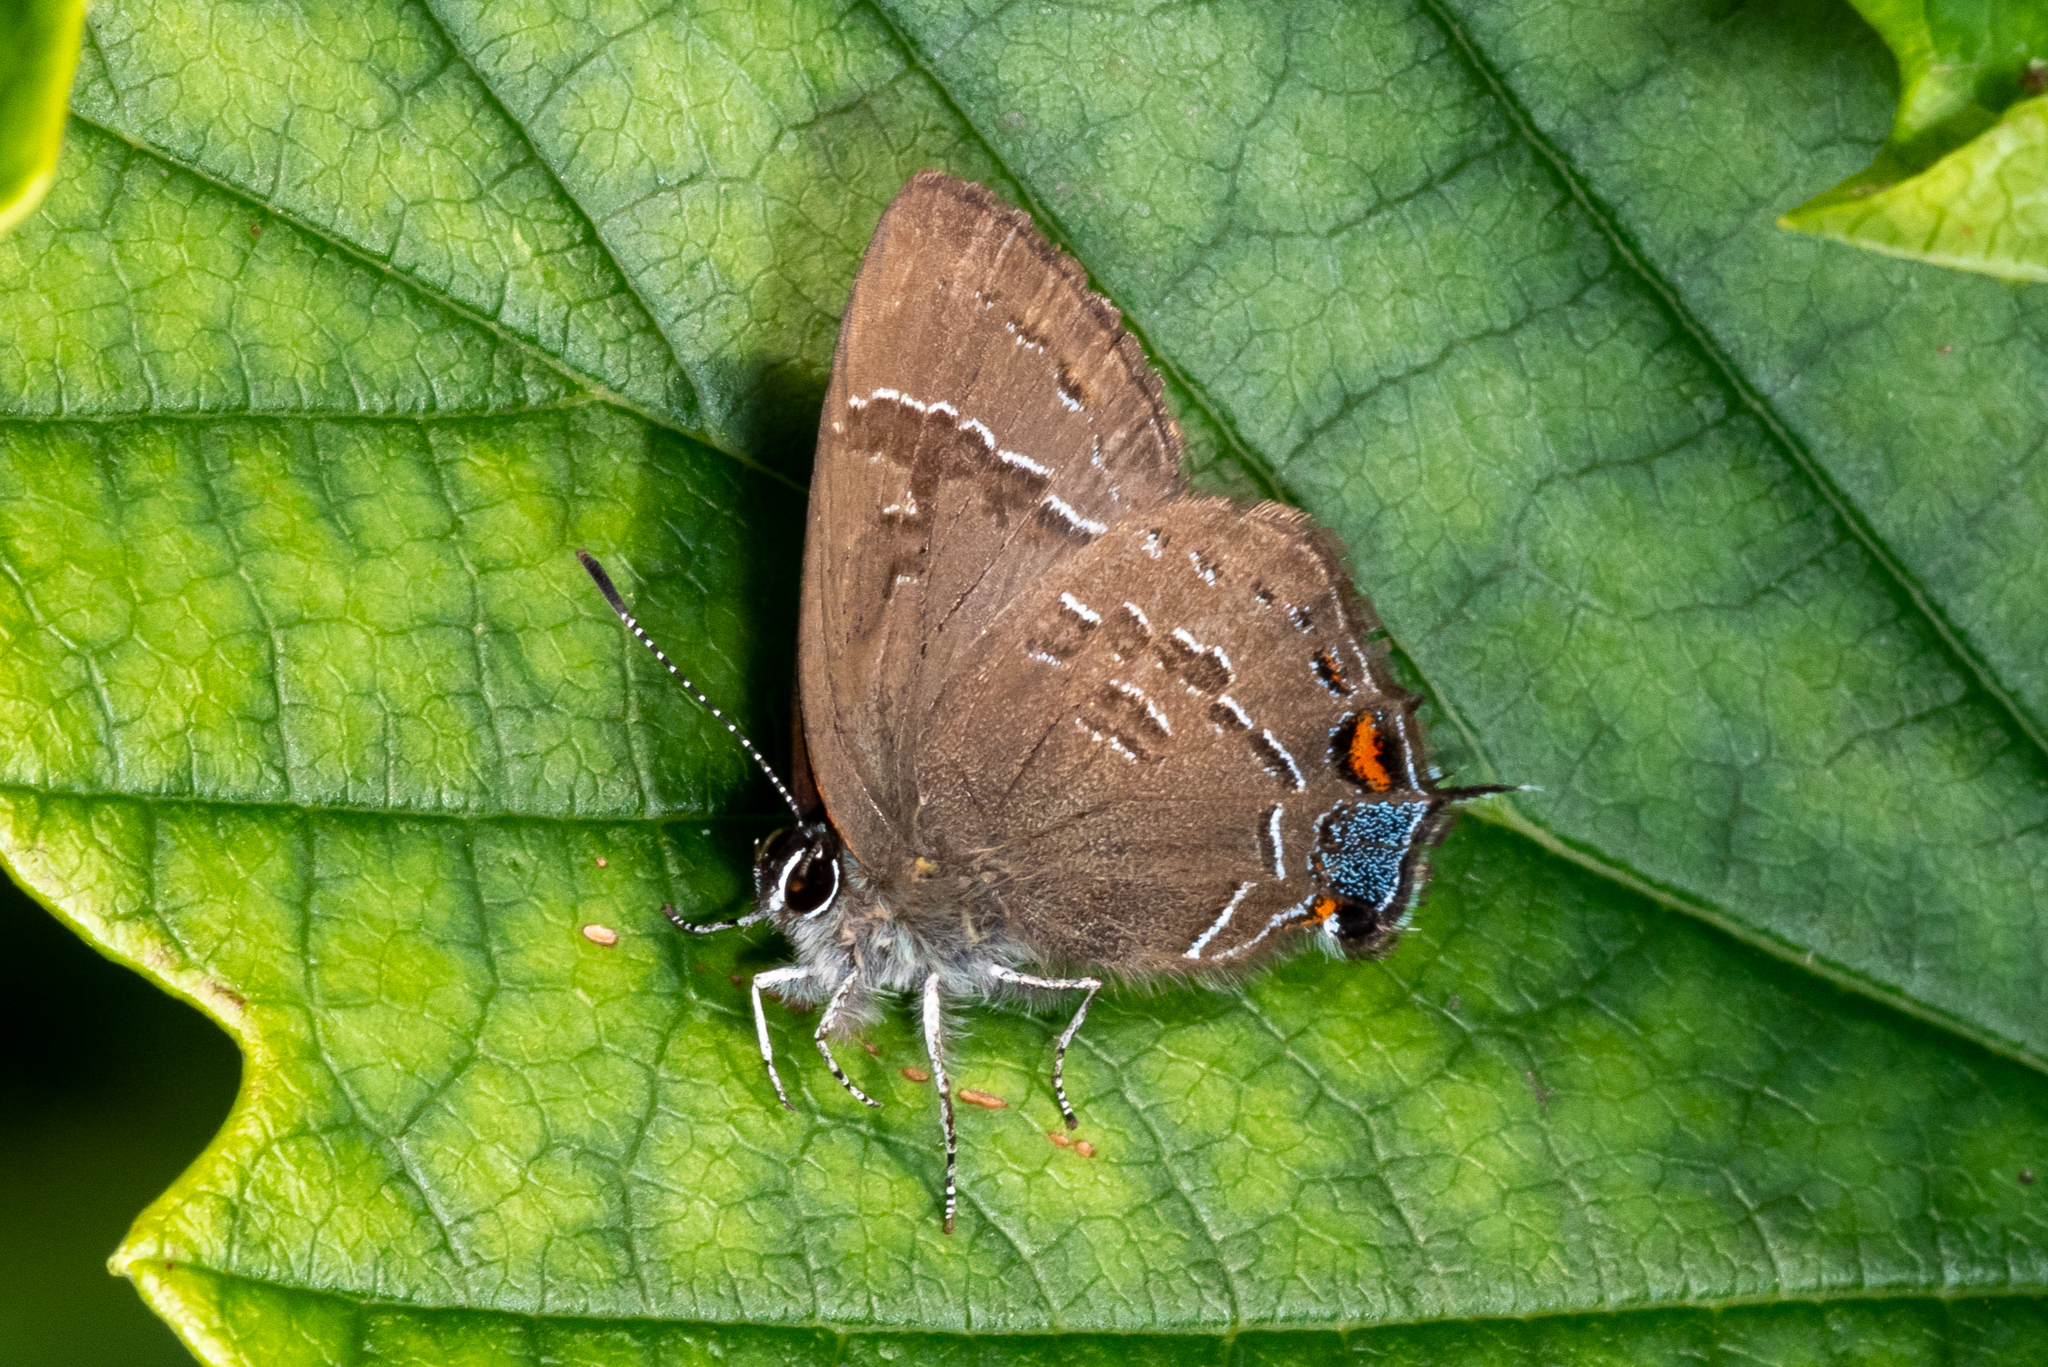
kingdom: Animalia
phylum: Arthropoda
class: Insecta
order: Lepidoptera
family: Lycaenidae
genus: Satyrium
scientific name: Satyrium calanus
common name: Banded hairstreak
